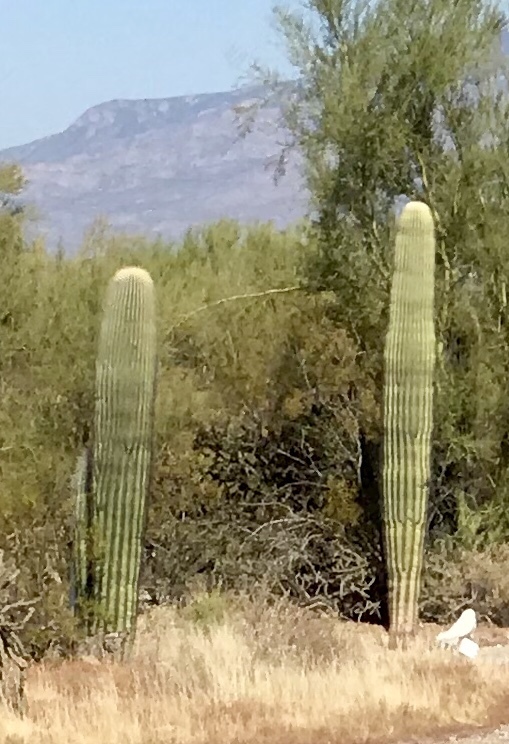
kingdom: Plantae
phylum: Tracheophyta
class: Magnoliopsida
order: Caryophyllales
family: Cactaceae
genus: Carnegiea
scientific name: Carnegiea gigantea
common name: Saguaro
